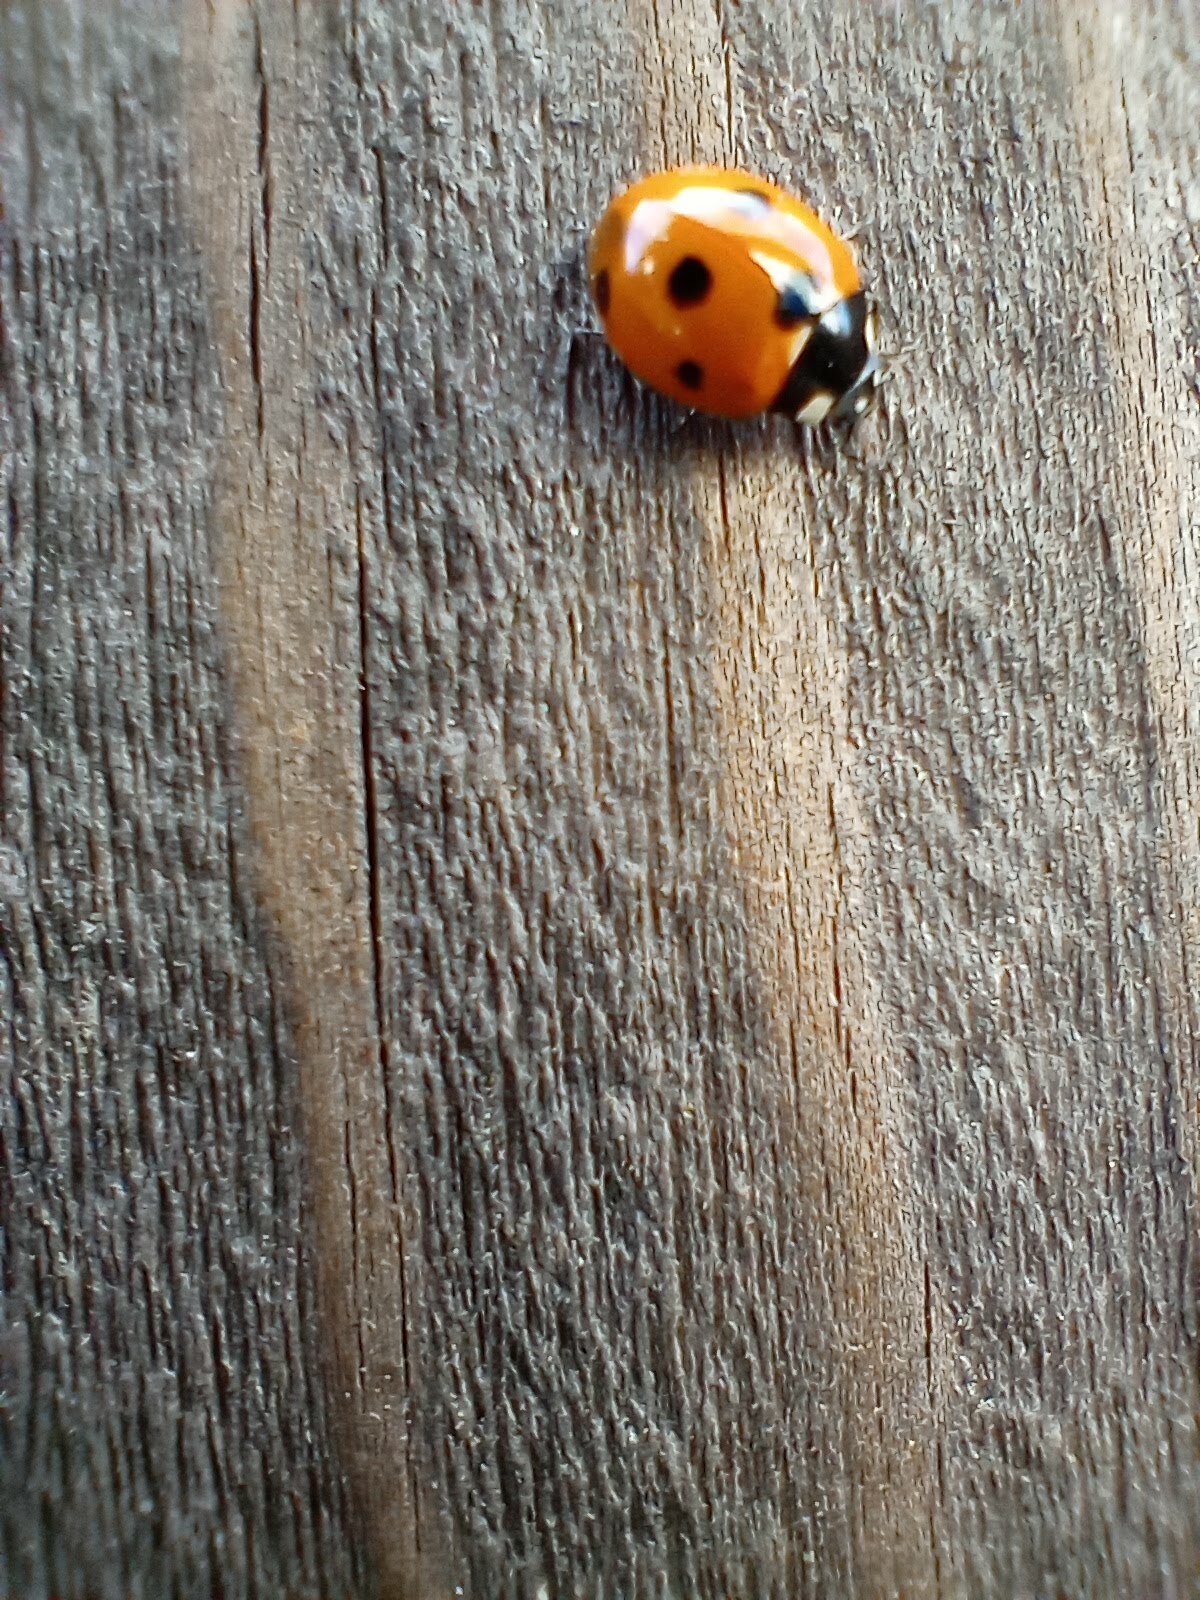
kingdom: Animalia
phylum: Arthropoda
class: Insecta
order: Coleoptera
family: Coccinellidae
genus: Coccinella
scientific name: Coccinella septempunctata
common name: Sevenspotted lady beetle
